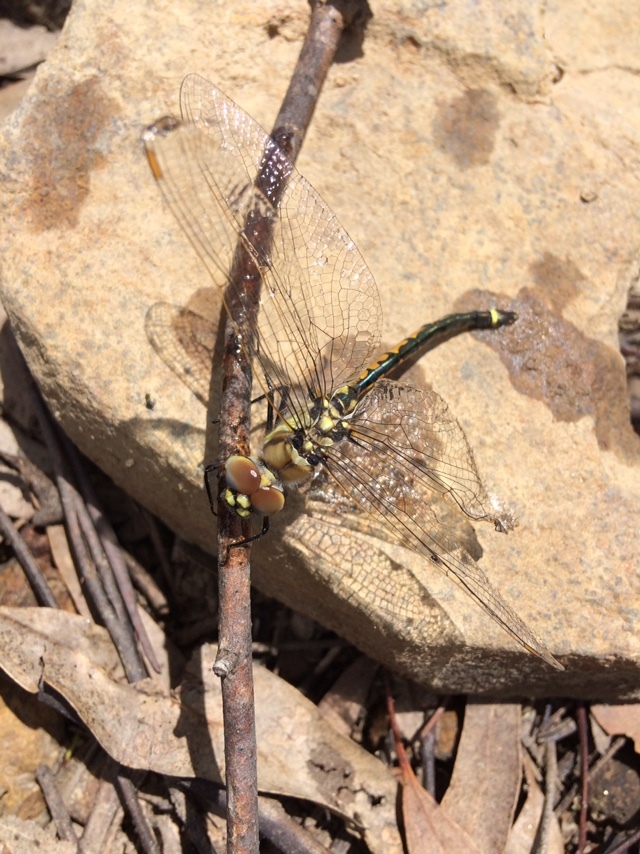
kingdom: Animalia
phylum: Arthropoda
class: Insecta
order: Odonata
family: Corduliidae
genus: Hemicordulia
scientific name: Hemicordulia tau
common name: Tau emerald
